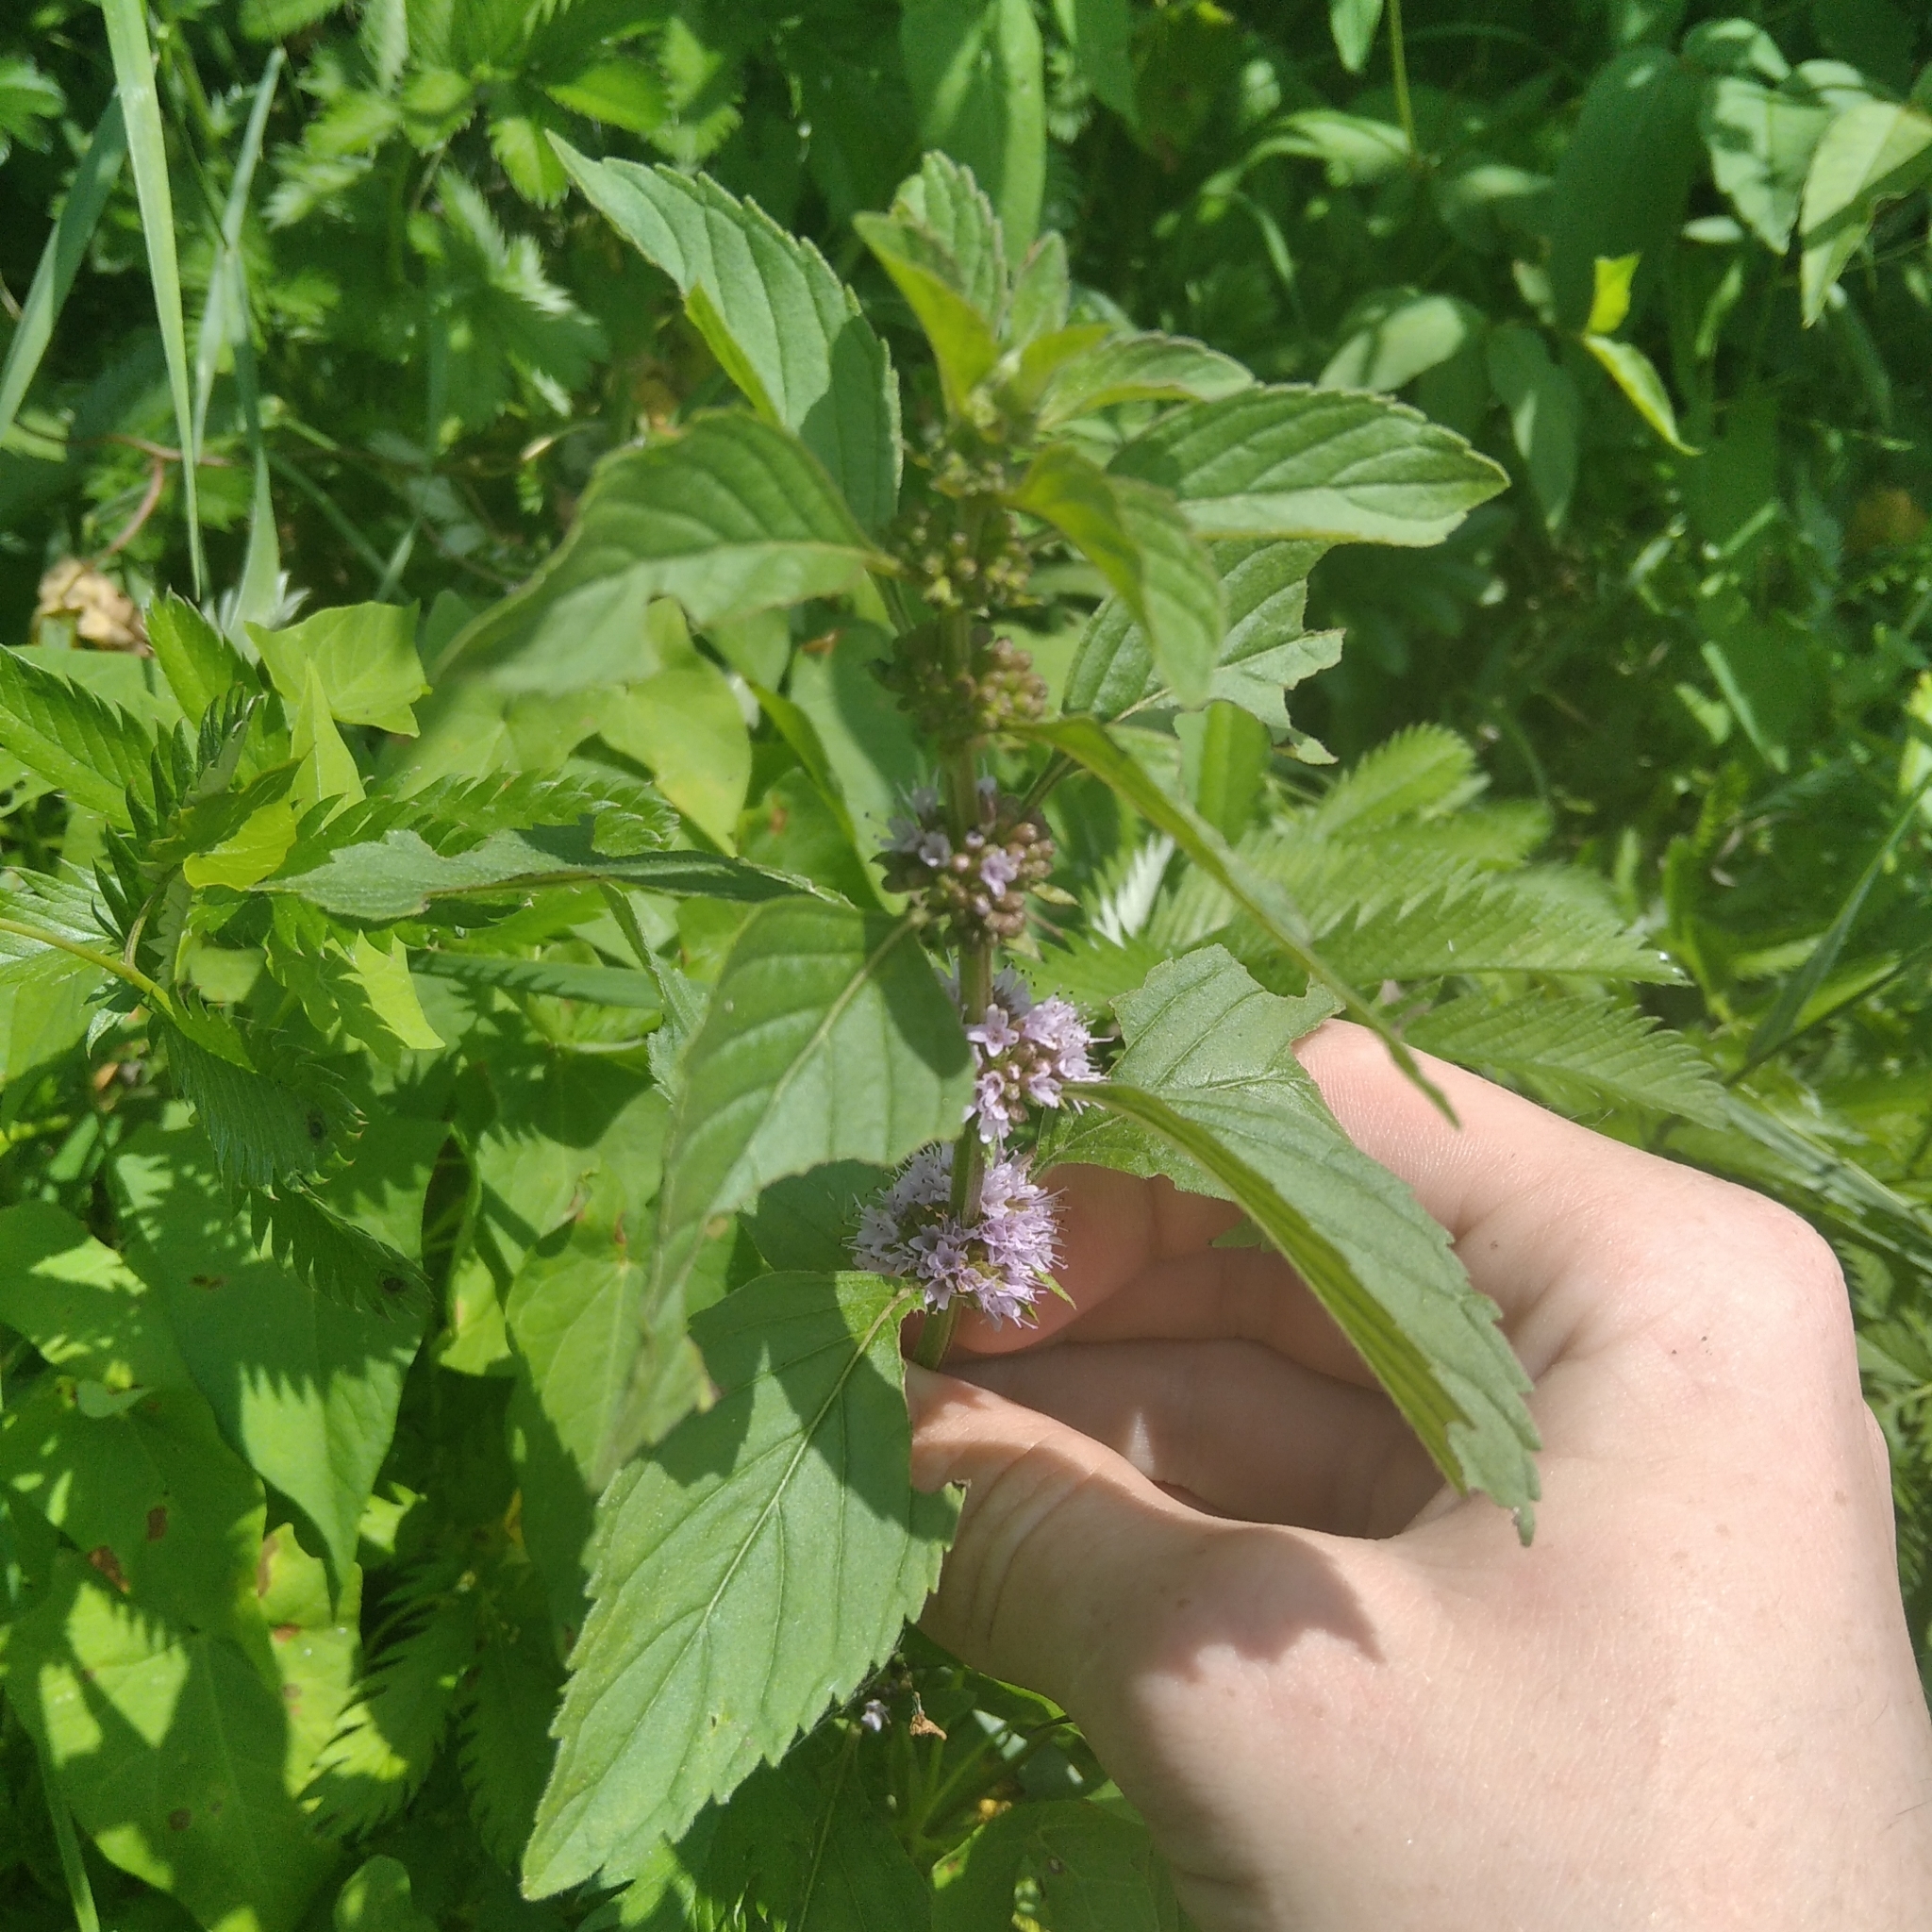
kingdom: Plantae
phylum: Tracheophyta
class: Magnoliopsida
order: Lamiales
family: Lamiaceae
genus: Mentha
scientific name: Mentha arvensis
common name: Corn mint
